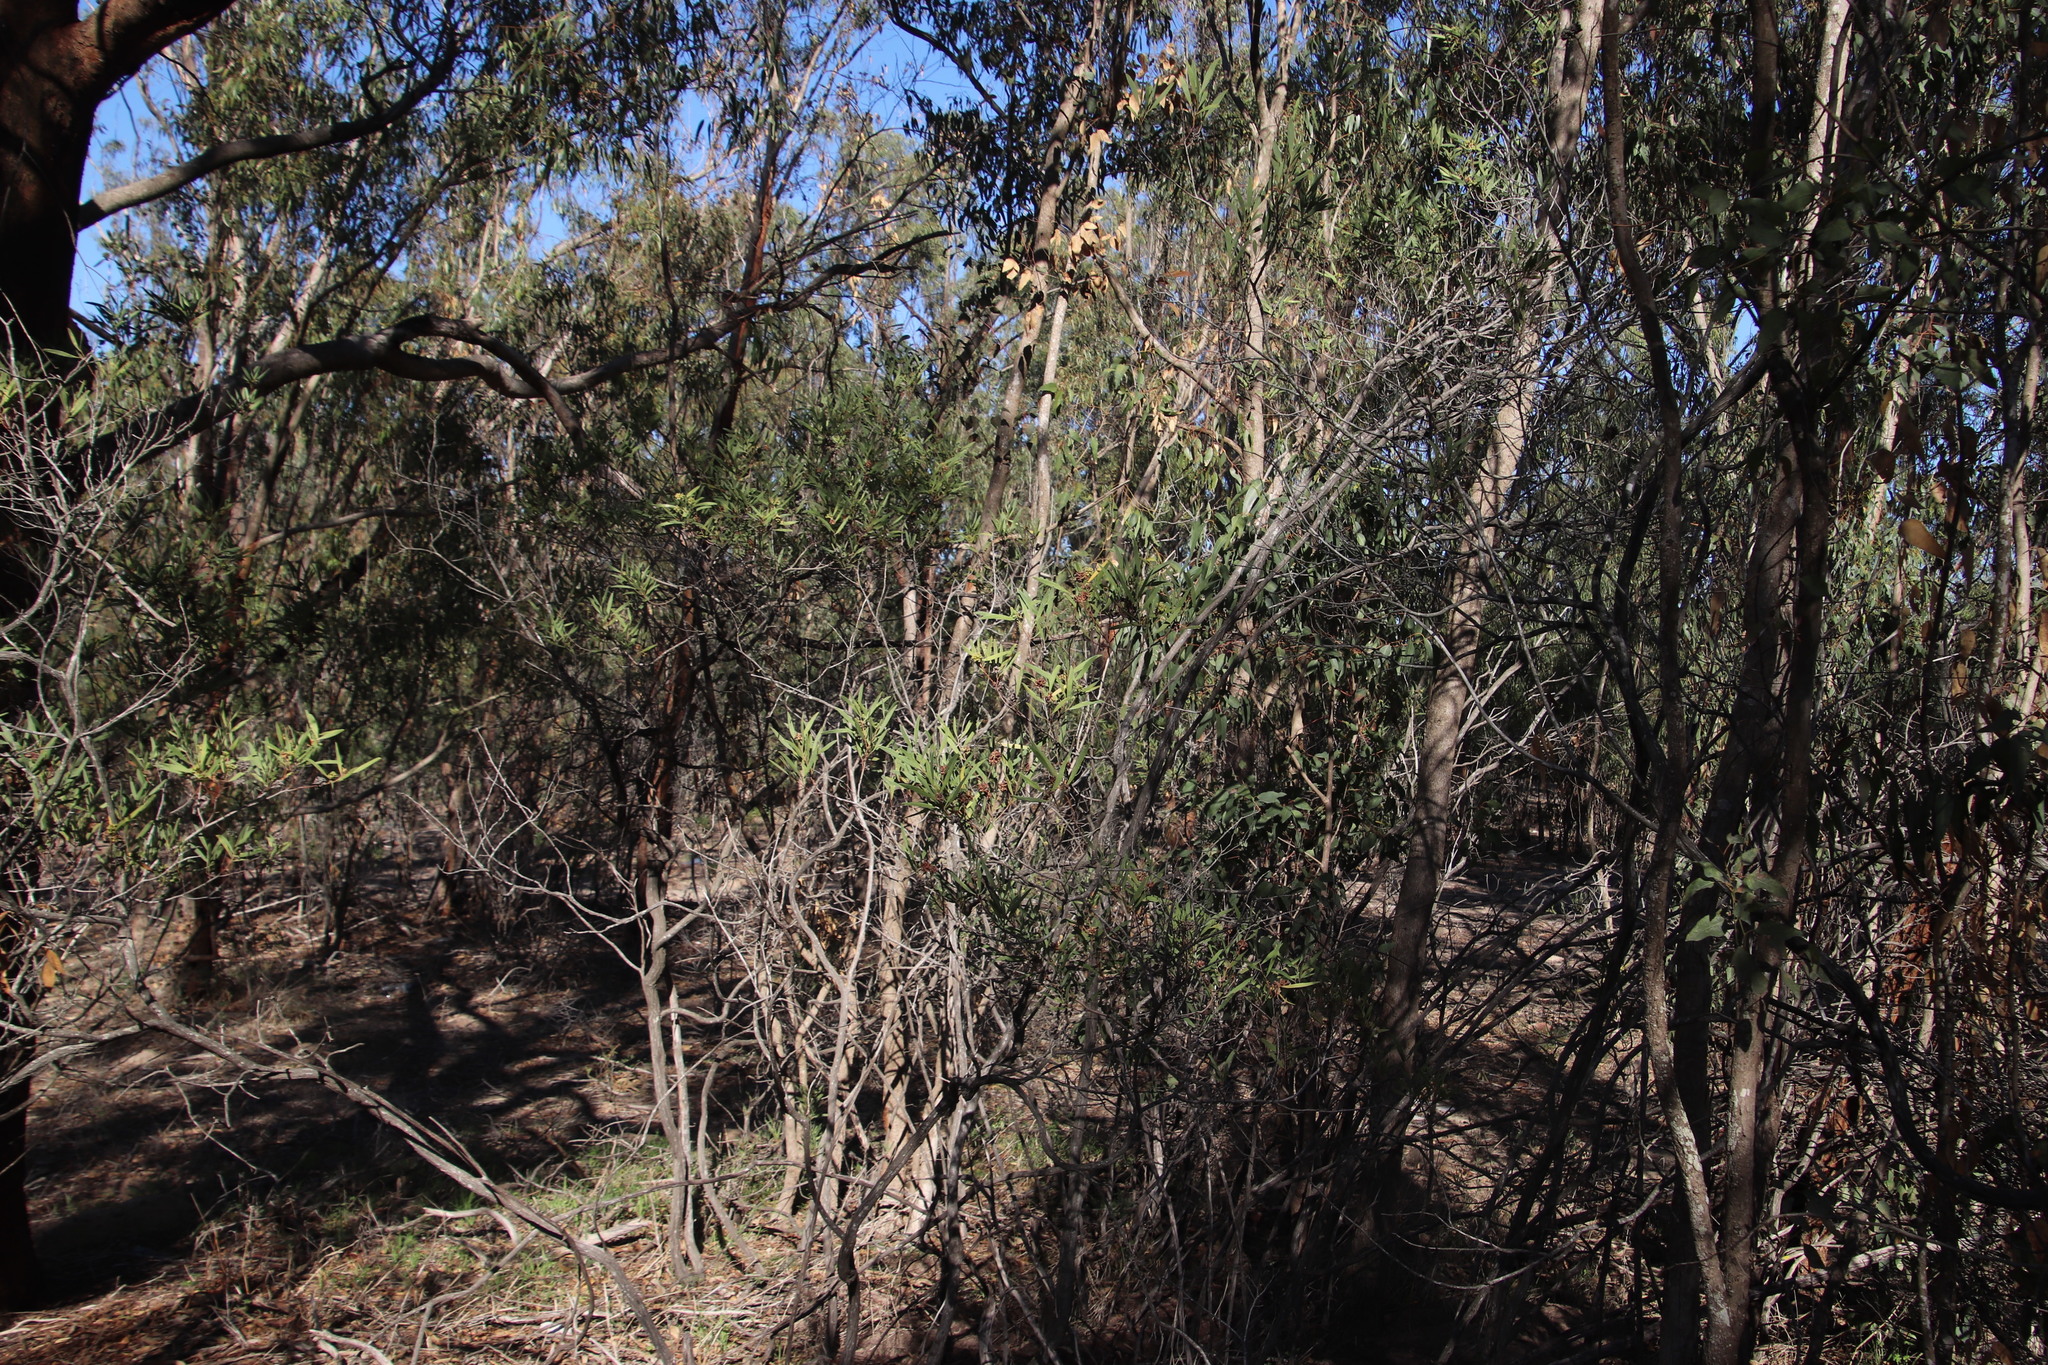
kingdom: Plantae
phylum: Tracheophyta
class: Magnoliopsida
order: Fabales
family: Fabaceae
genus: Acacia
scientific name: Acacia cyclops
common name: Coastal wattle
